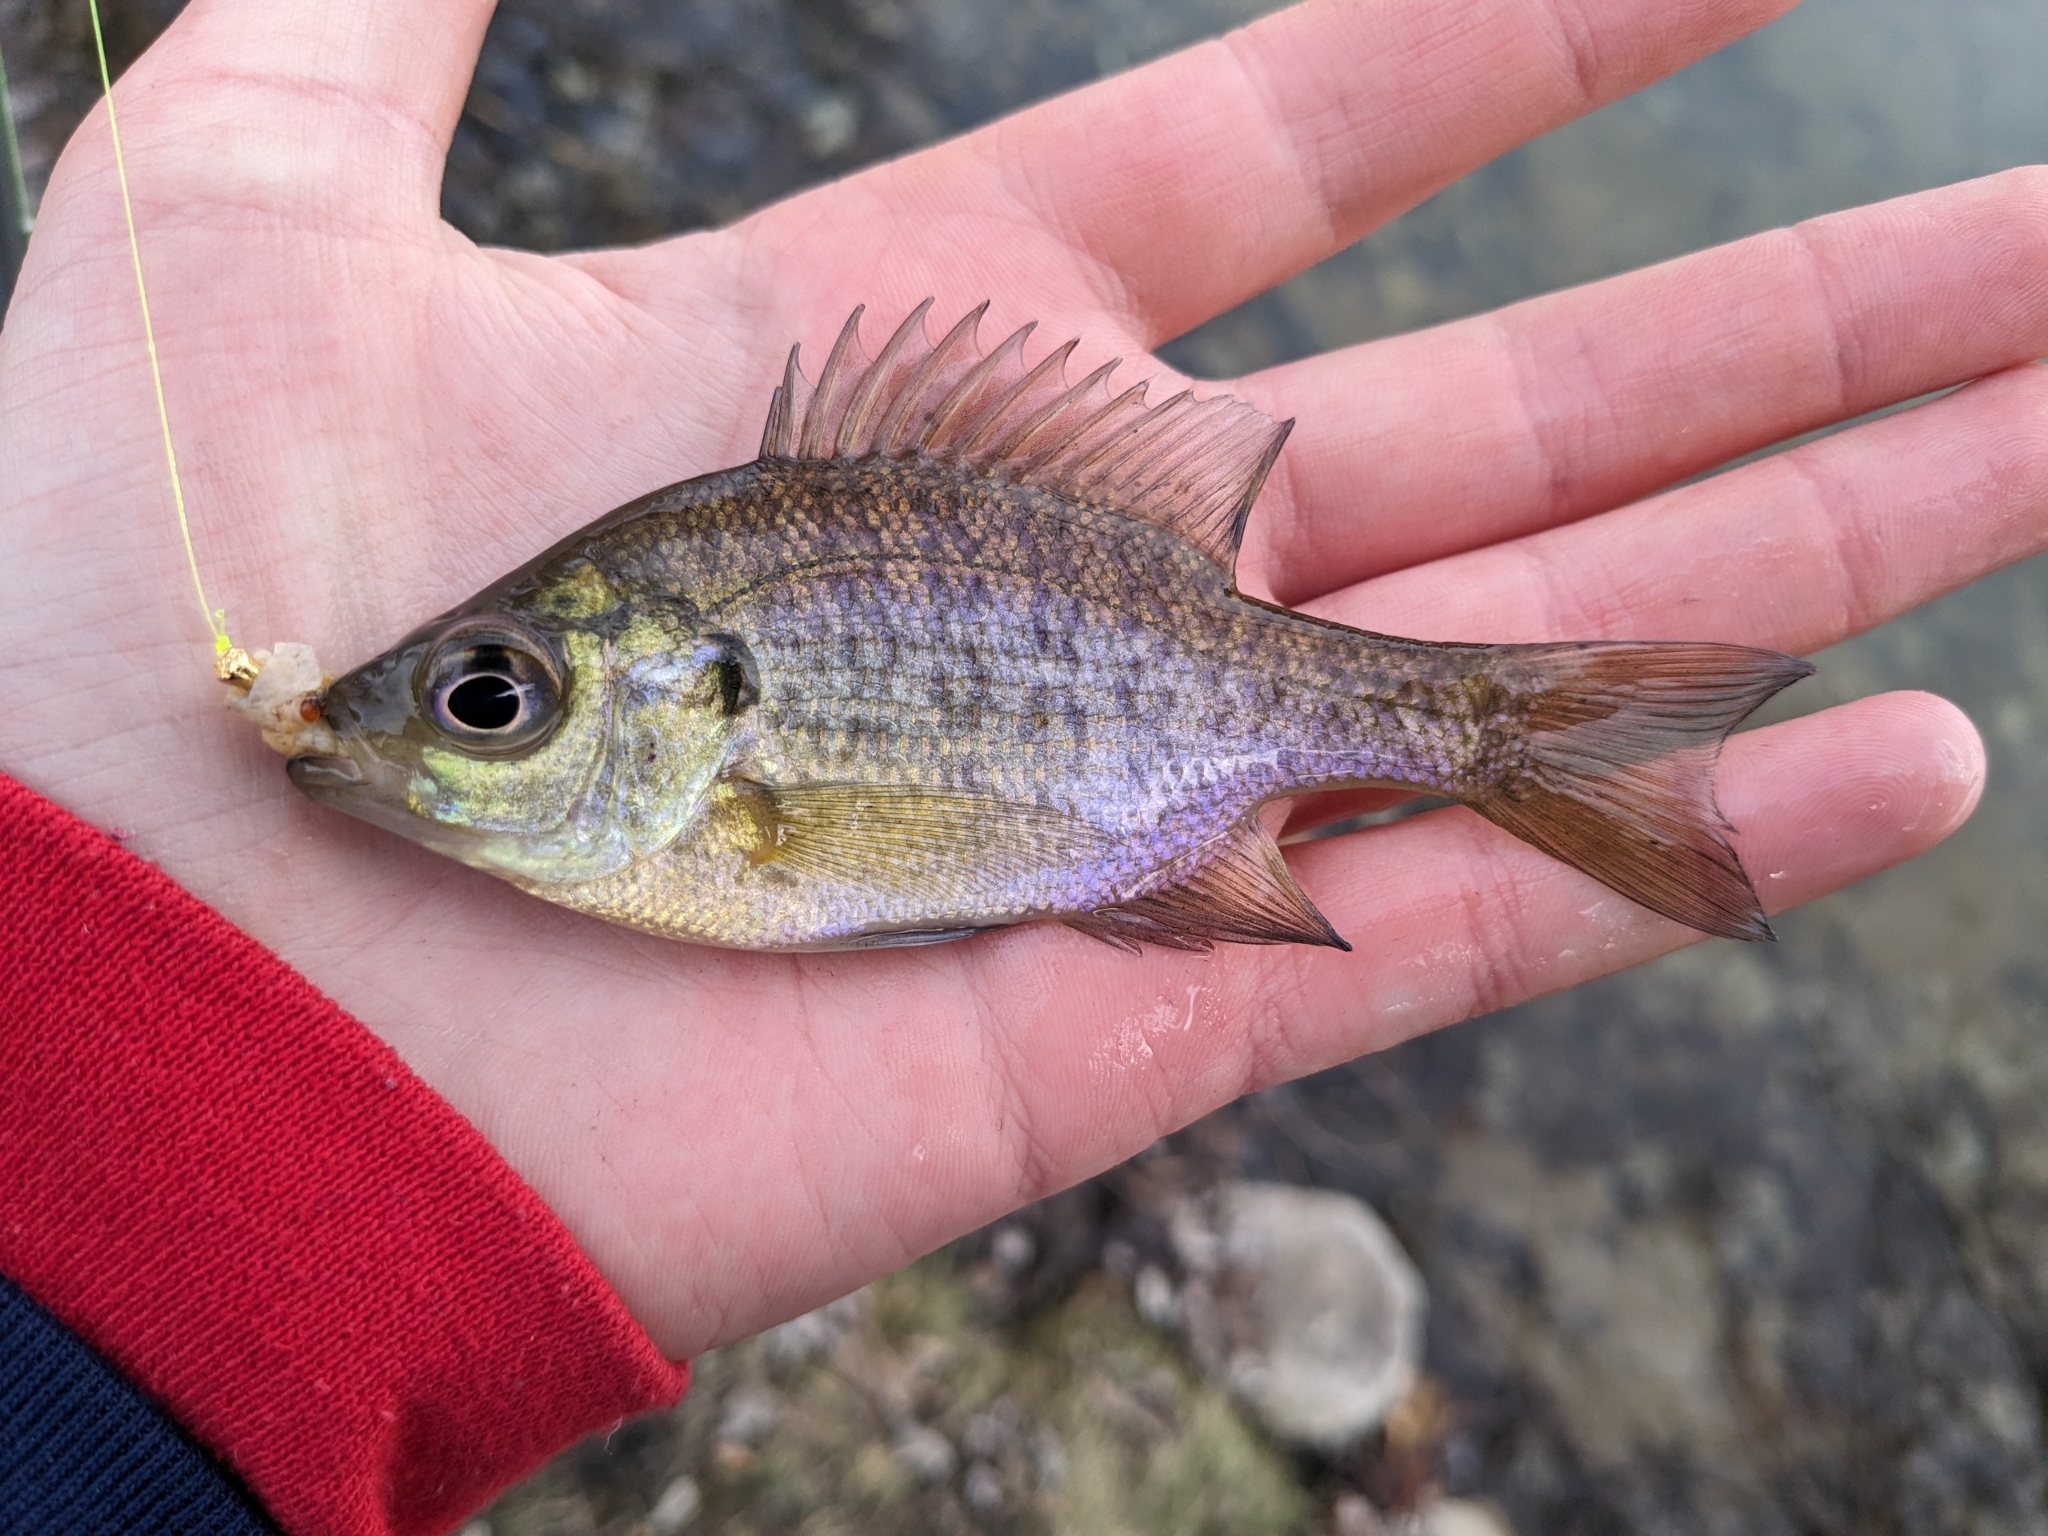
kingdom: Animalia
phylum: Chordata
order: Perciformes
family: Centrarchidae
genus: Lepomis
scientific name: Lepomis macrochirus
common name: Bluegill
